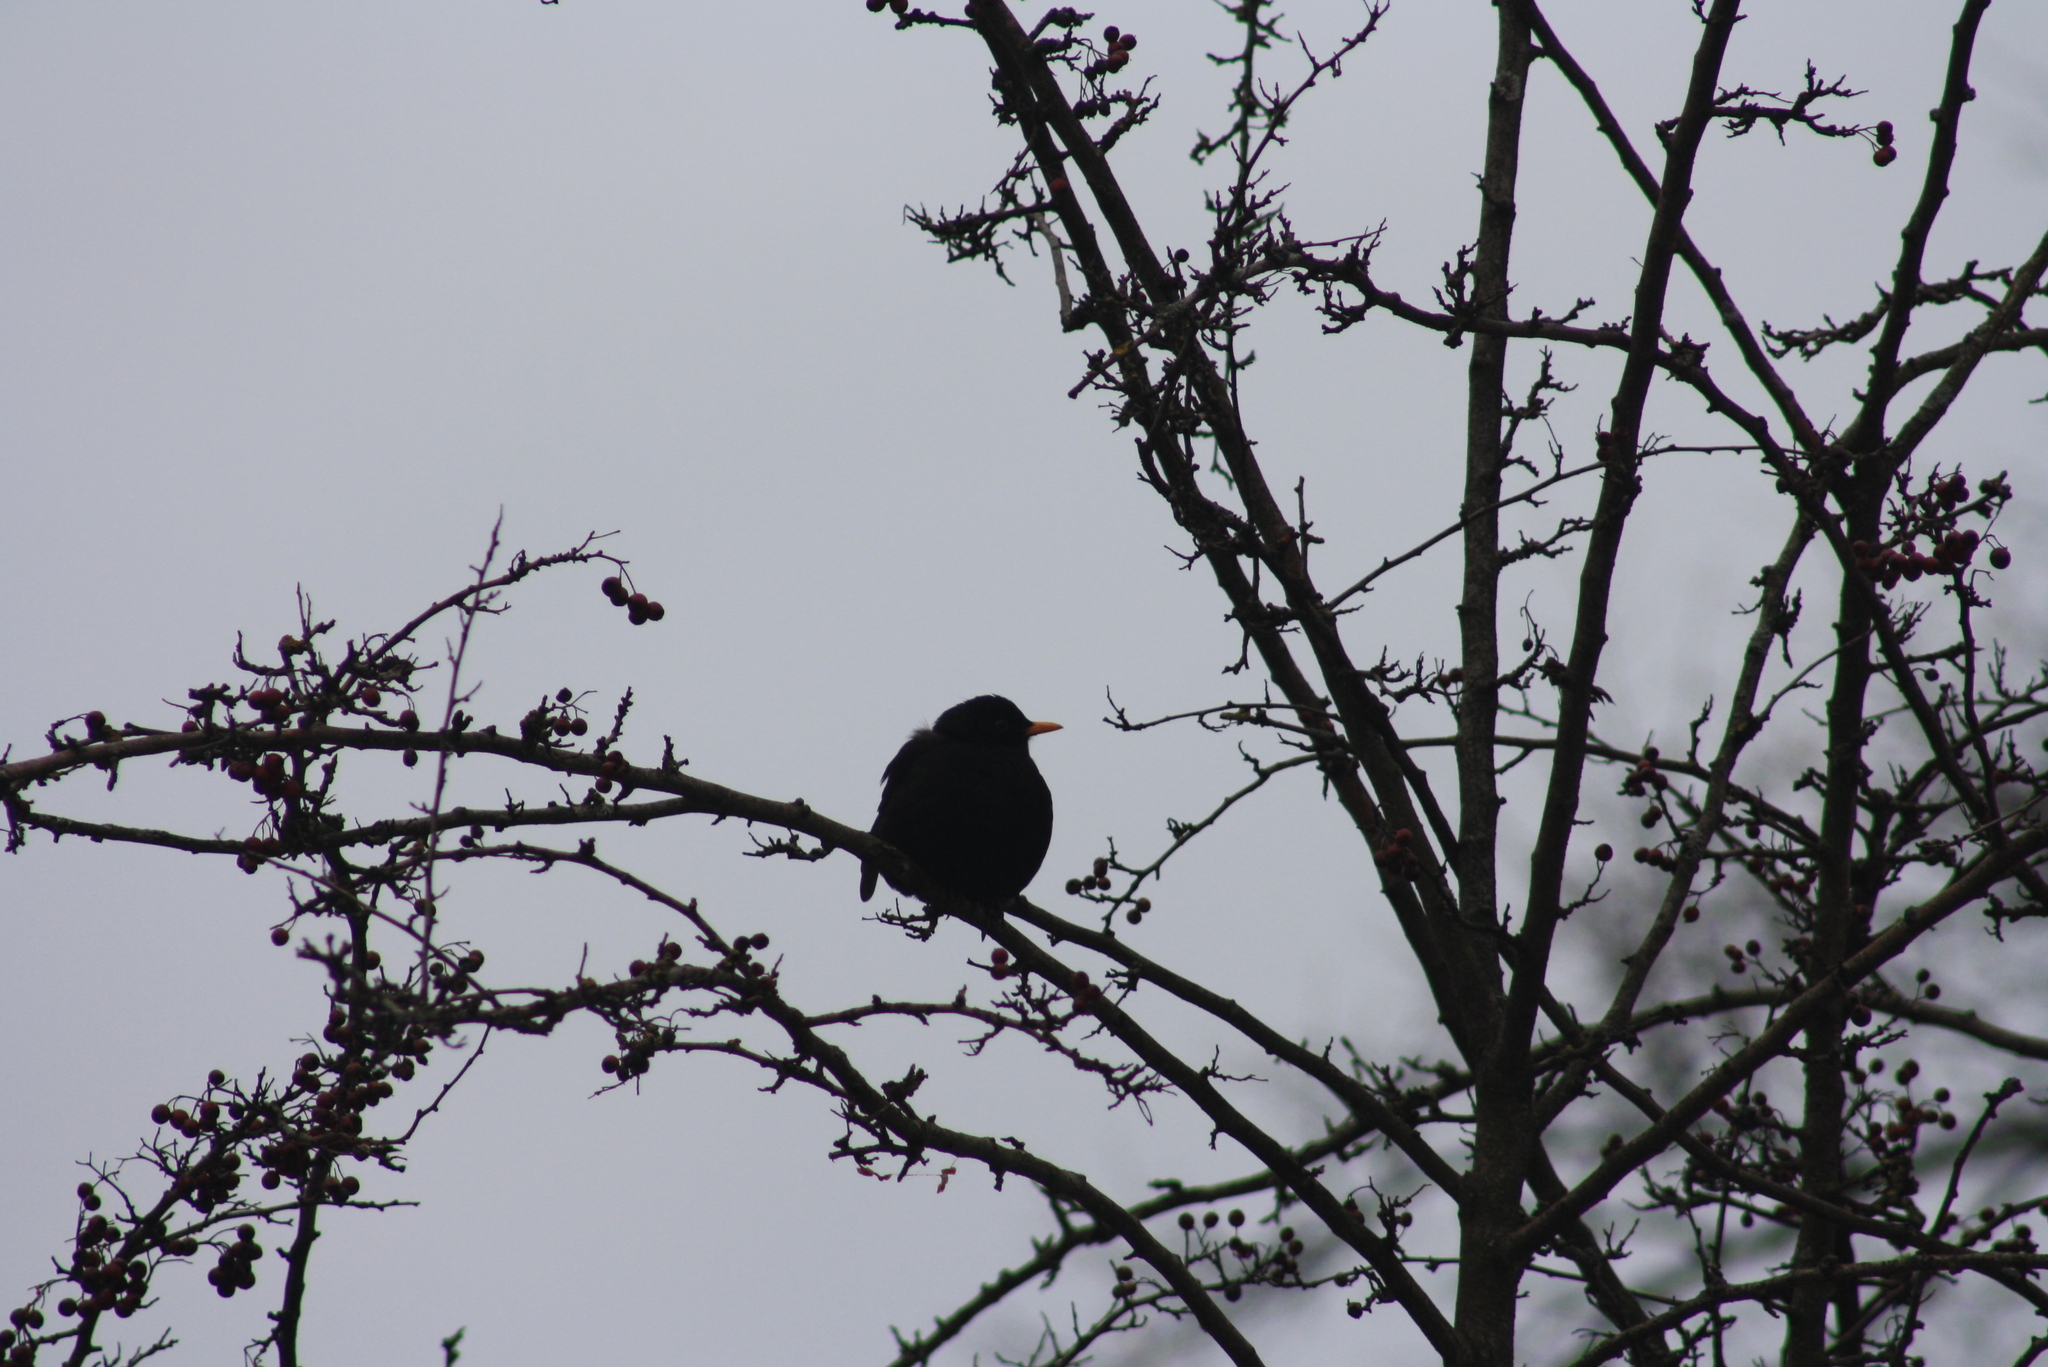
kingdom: Animalia
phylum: Chordata
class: Aves
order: Passeriformes
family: Turdidae
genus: Turdus
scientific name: Turdus merula
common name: Common blackbird
